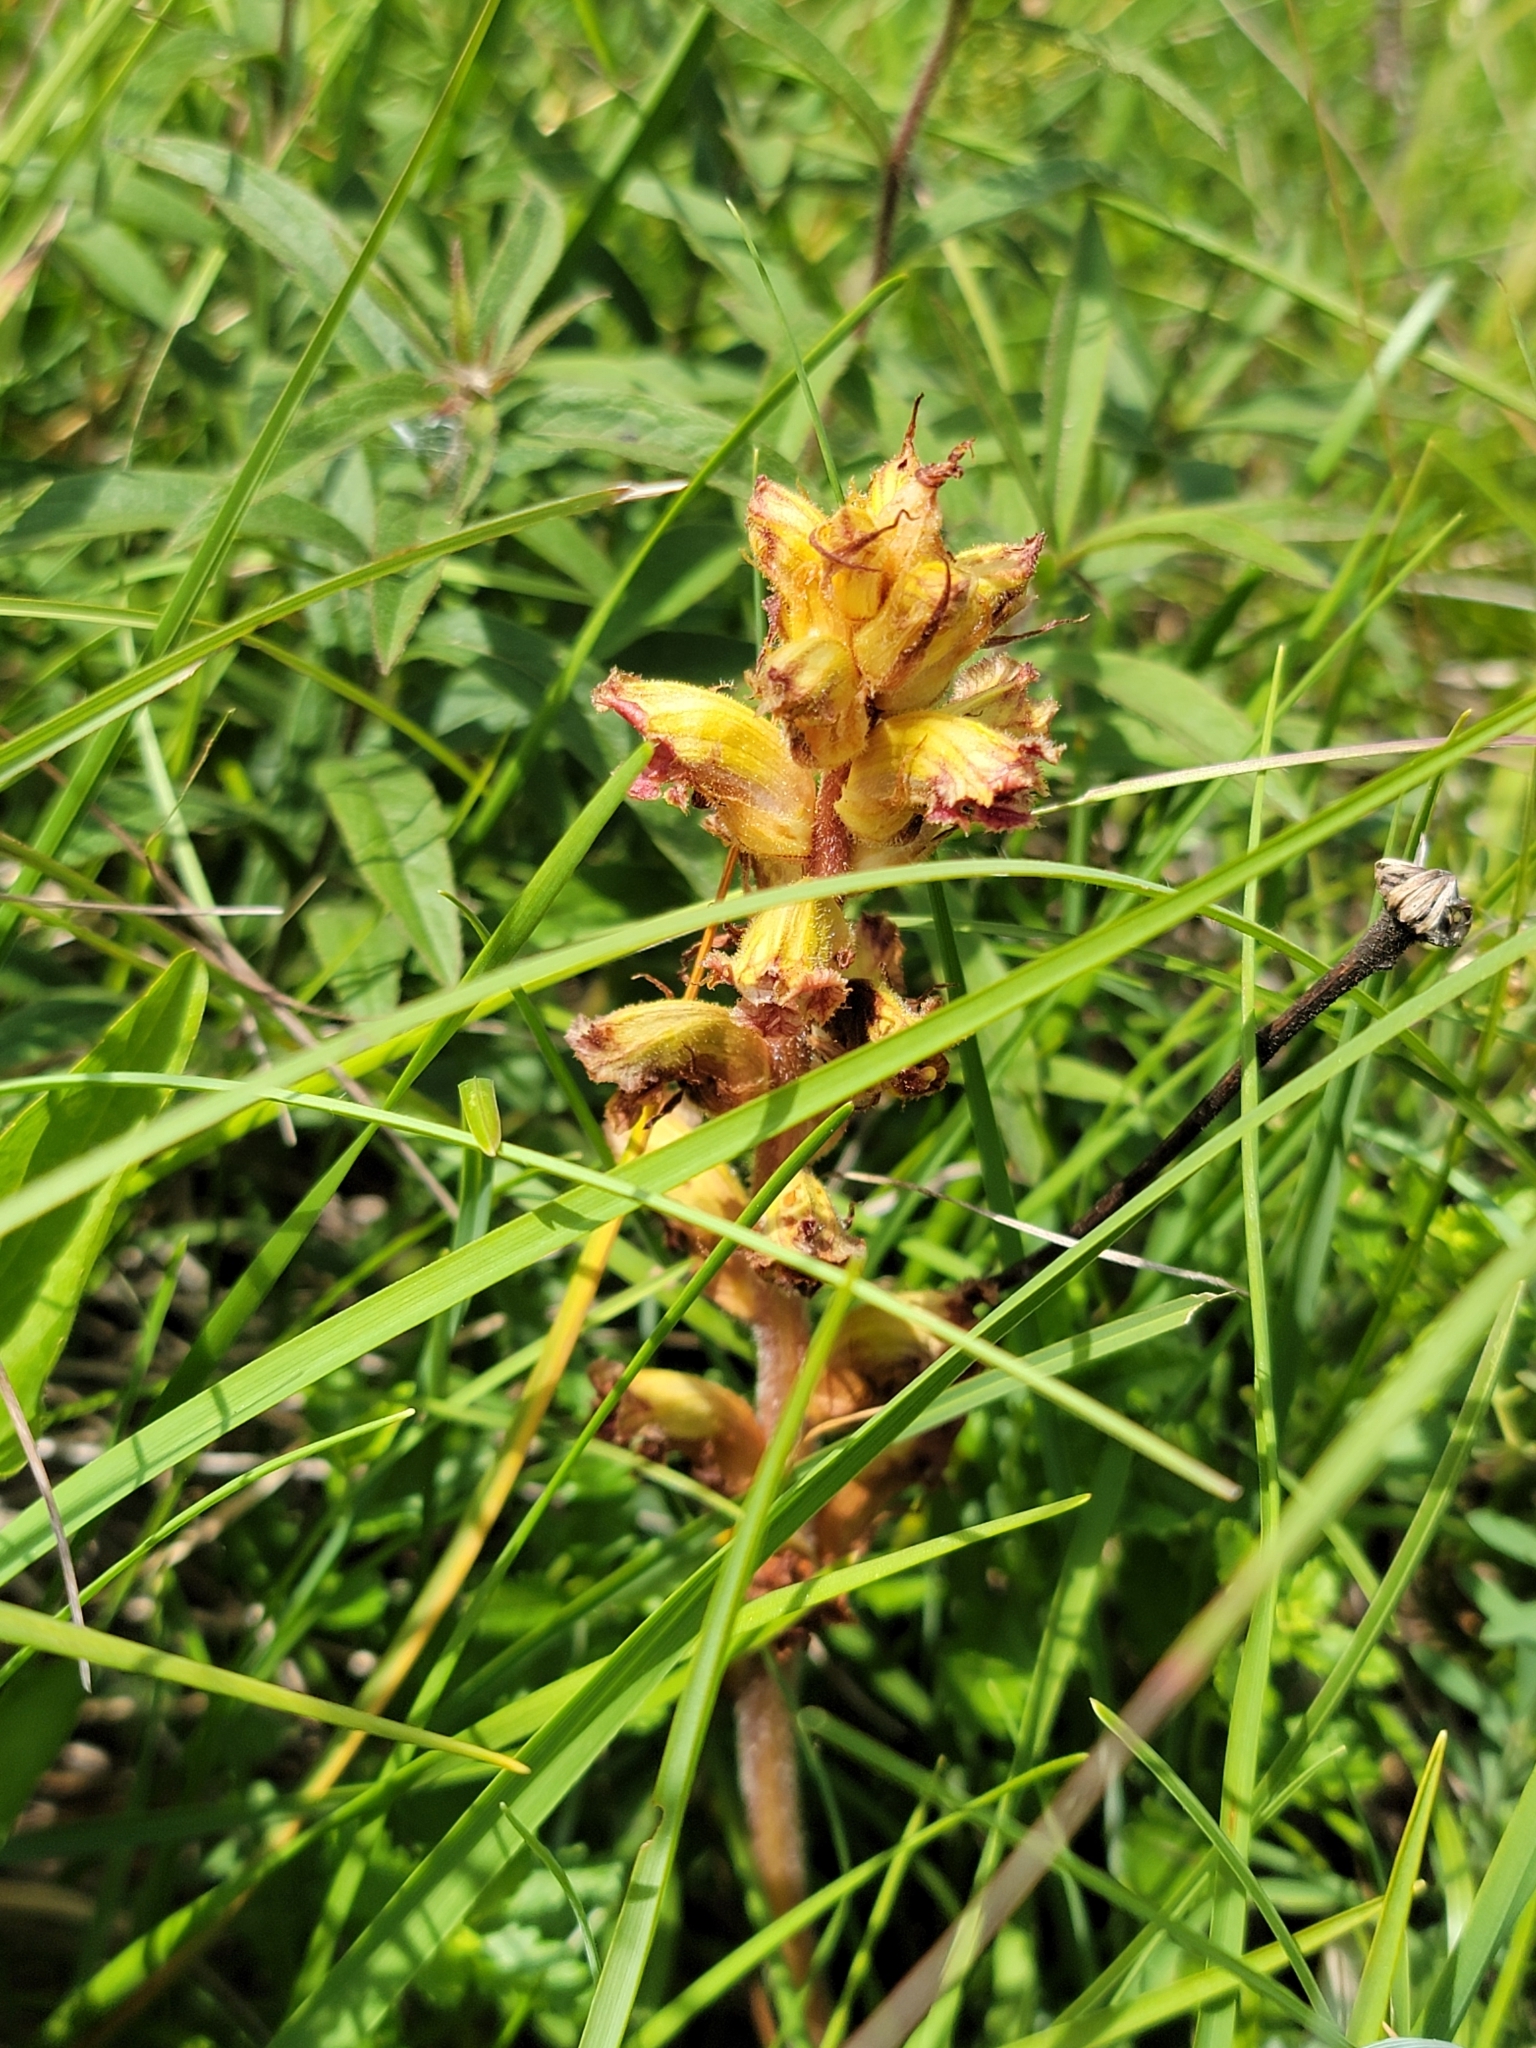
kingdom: Plantae
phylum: Tracheophyta
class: Magnoliopsida
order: Lamiales
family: Orobanchaceae
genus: Orobanche
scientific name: Orobanche gracilis
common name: Slender broomrape
